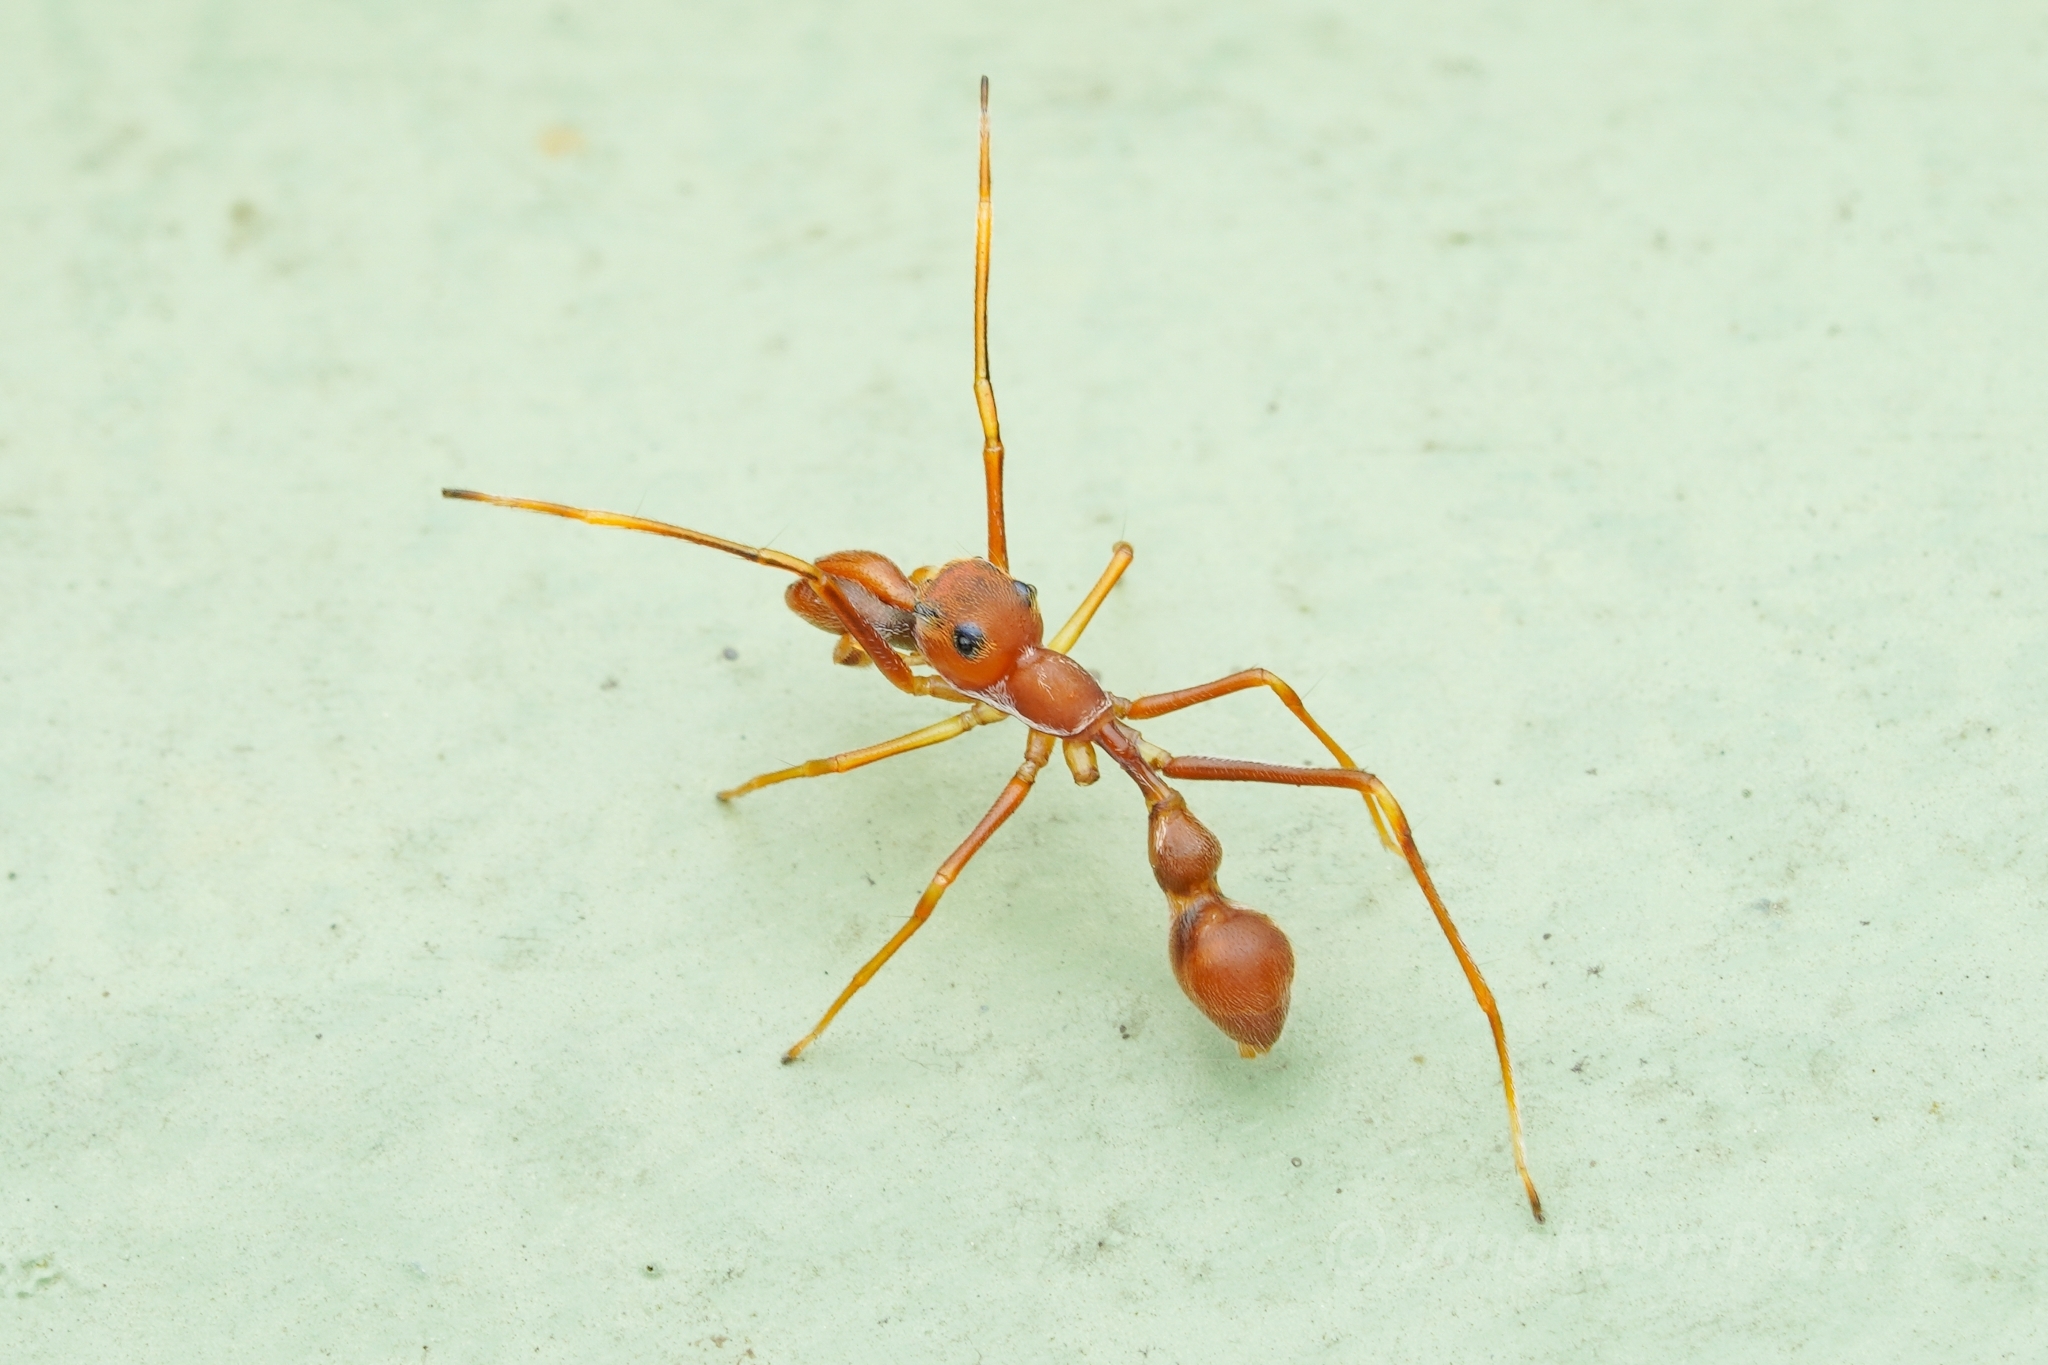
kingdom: Animalia
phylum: Arthropoda
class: Arachnida
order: Araneae
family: Salticidae
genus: Myrmarachne
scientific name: Myrmarachne assimilis
